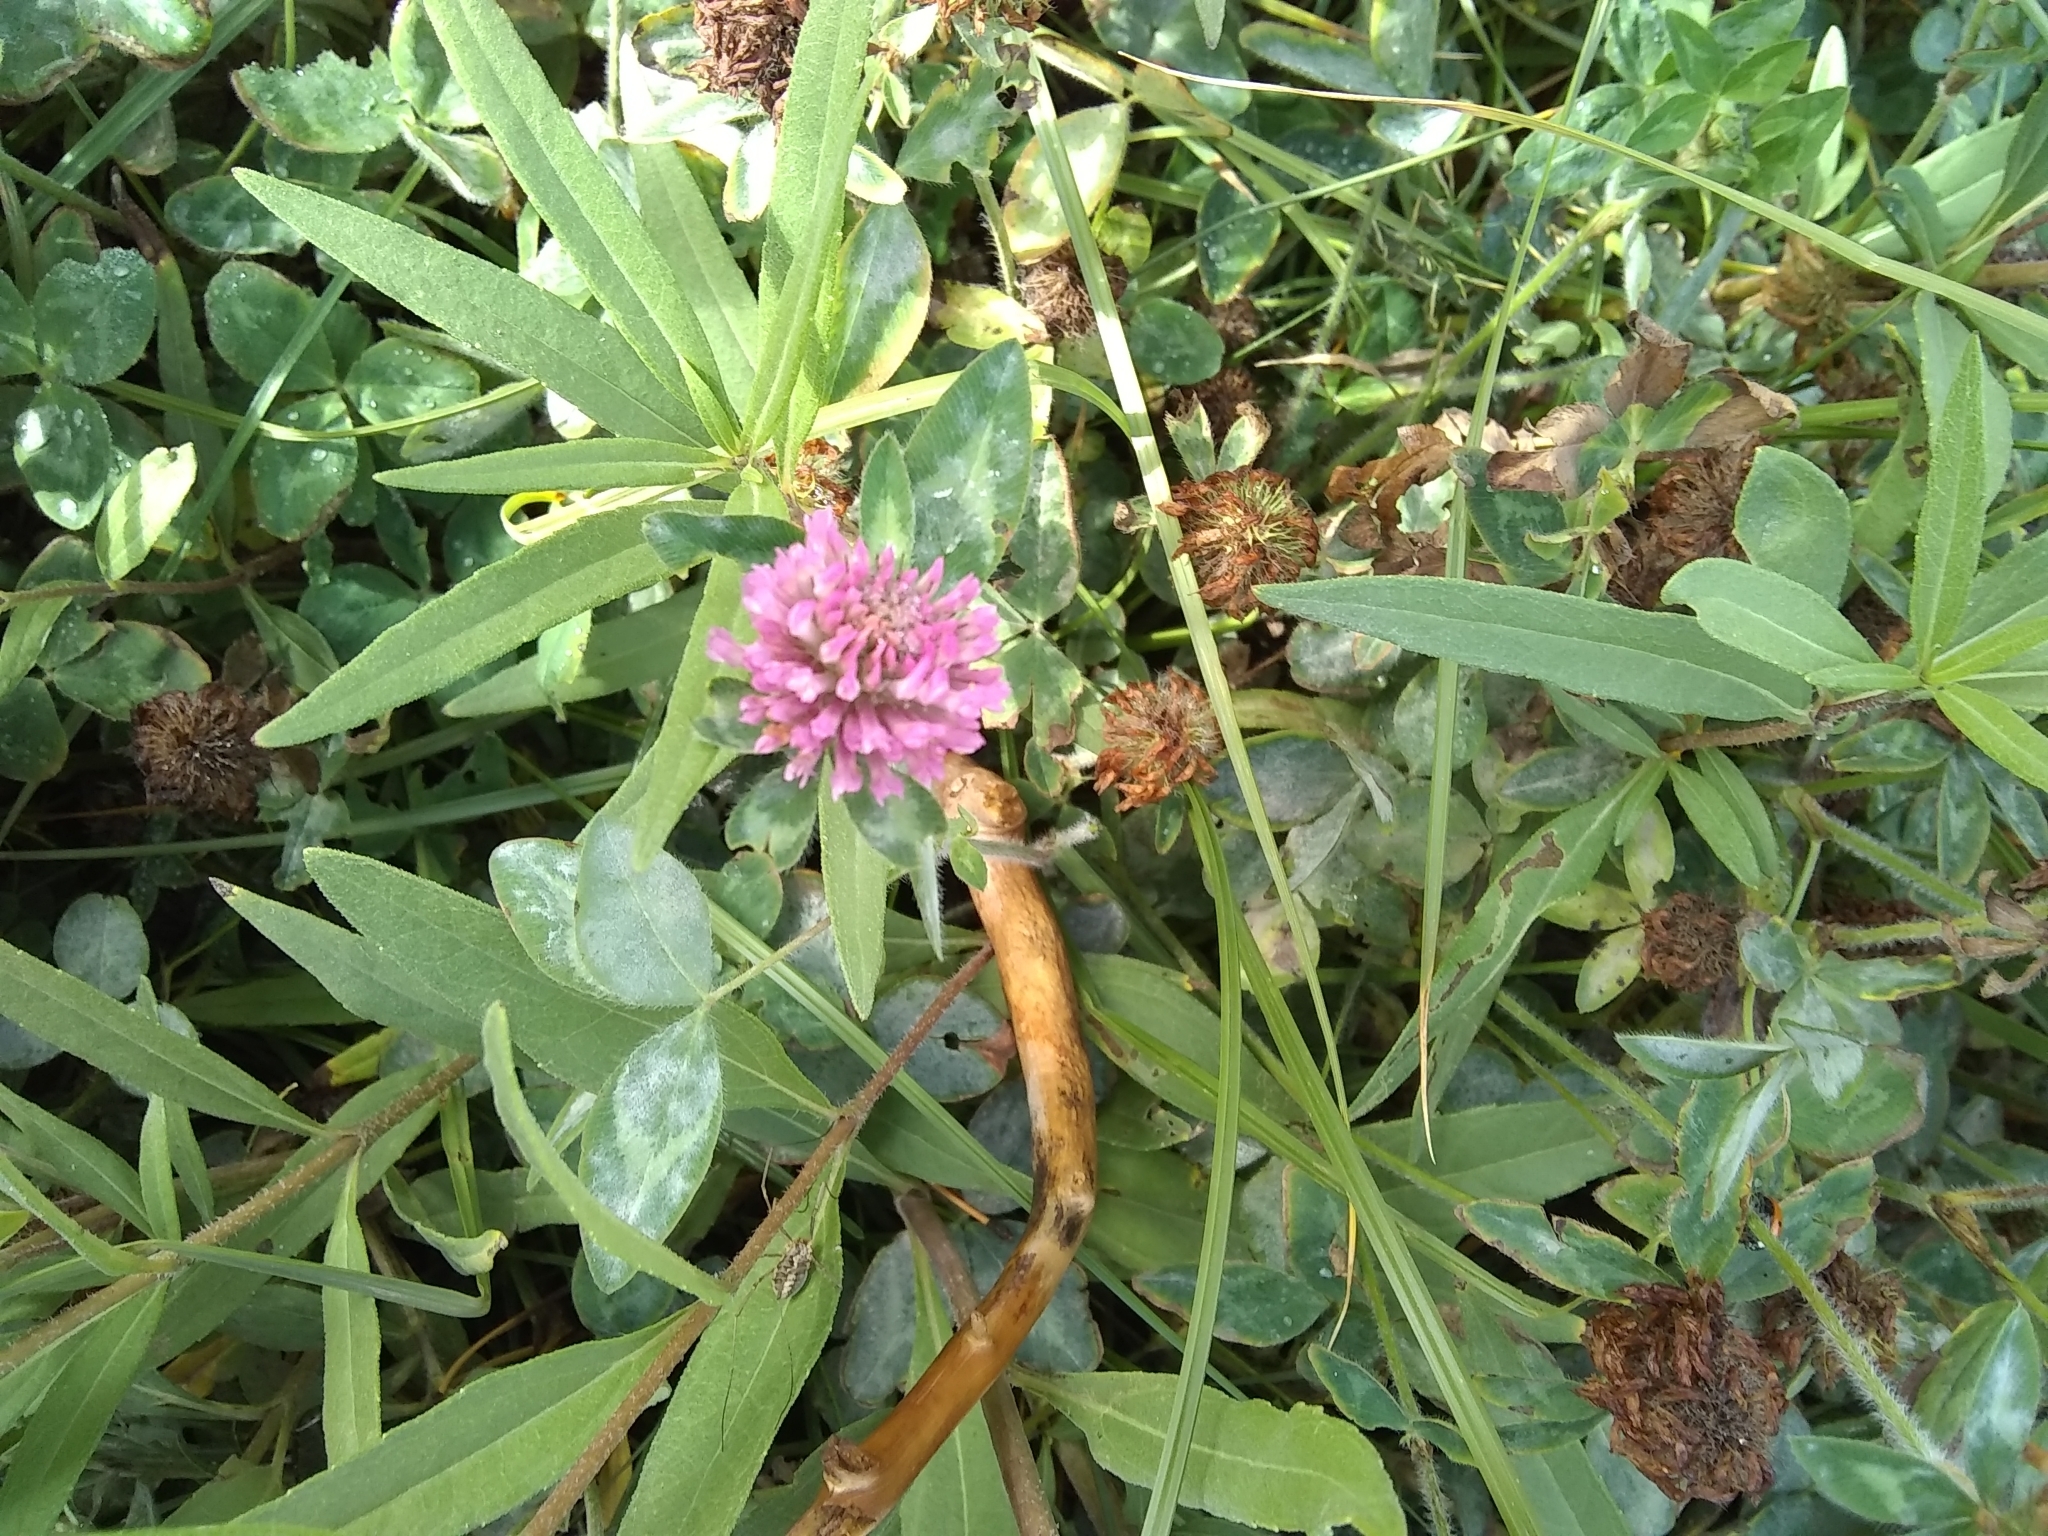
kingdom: Plantae
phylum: Tracheophyta
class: Magnoliopsida
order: Fabales
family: Fabaceae
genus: Trifolium
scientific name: Trifolium pratense
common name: Red clover
